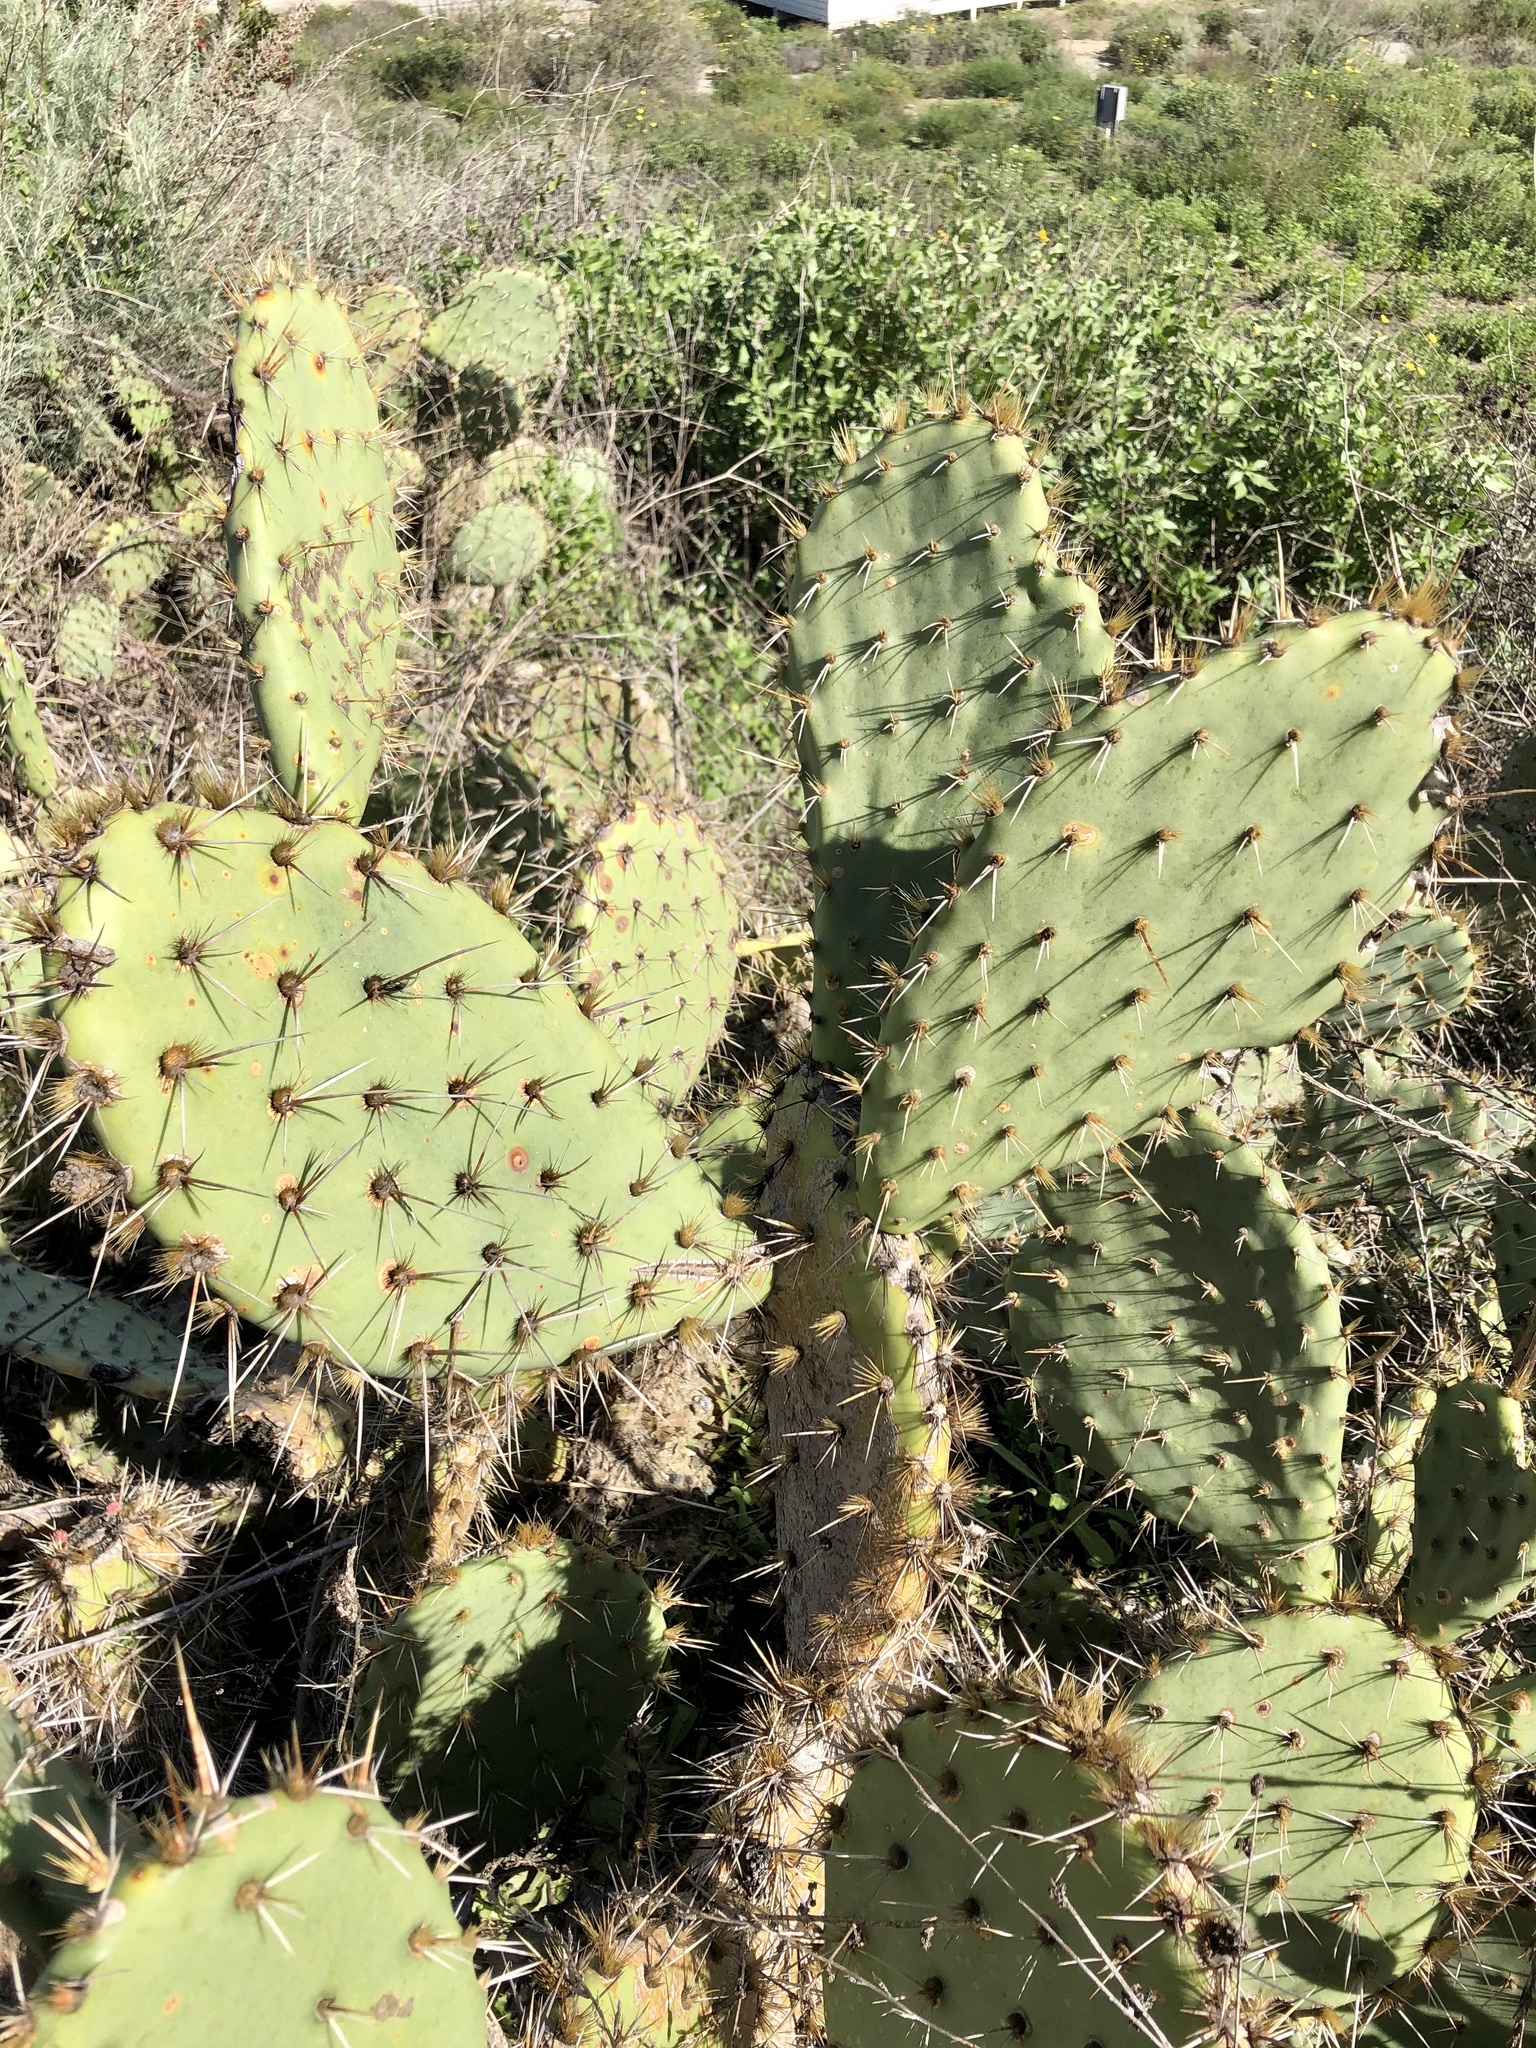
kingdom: Plantae
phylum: Tracheophyta
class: Magnoliopsida
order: Caryophyllales
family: Cactaceae
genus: Opuntia
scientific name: Opuntia littoralis
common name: Coastal prickly-pear
